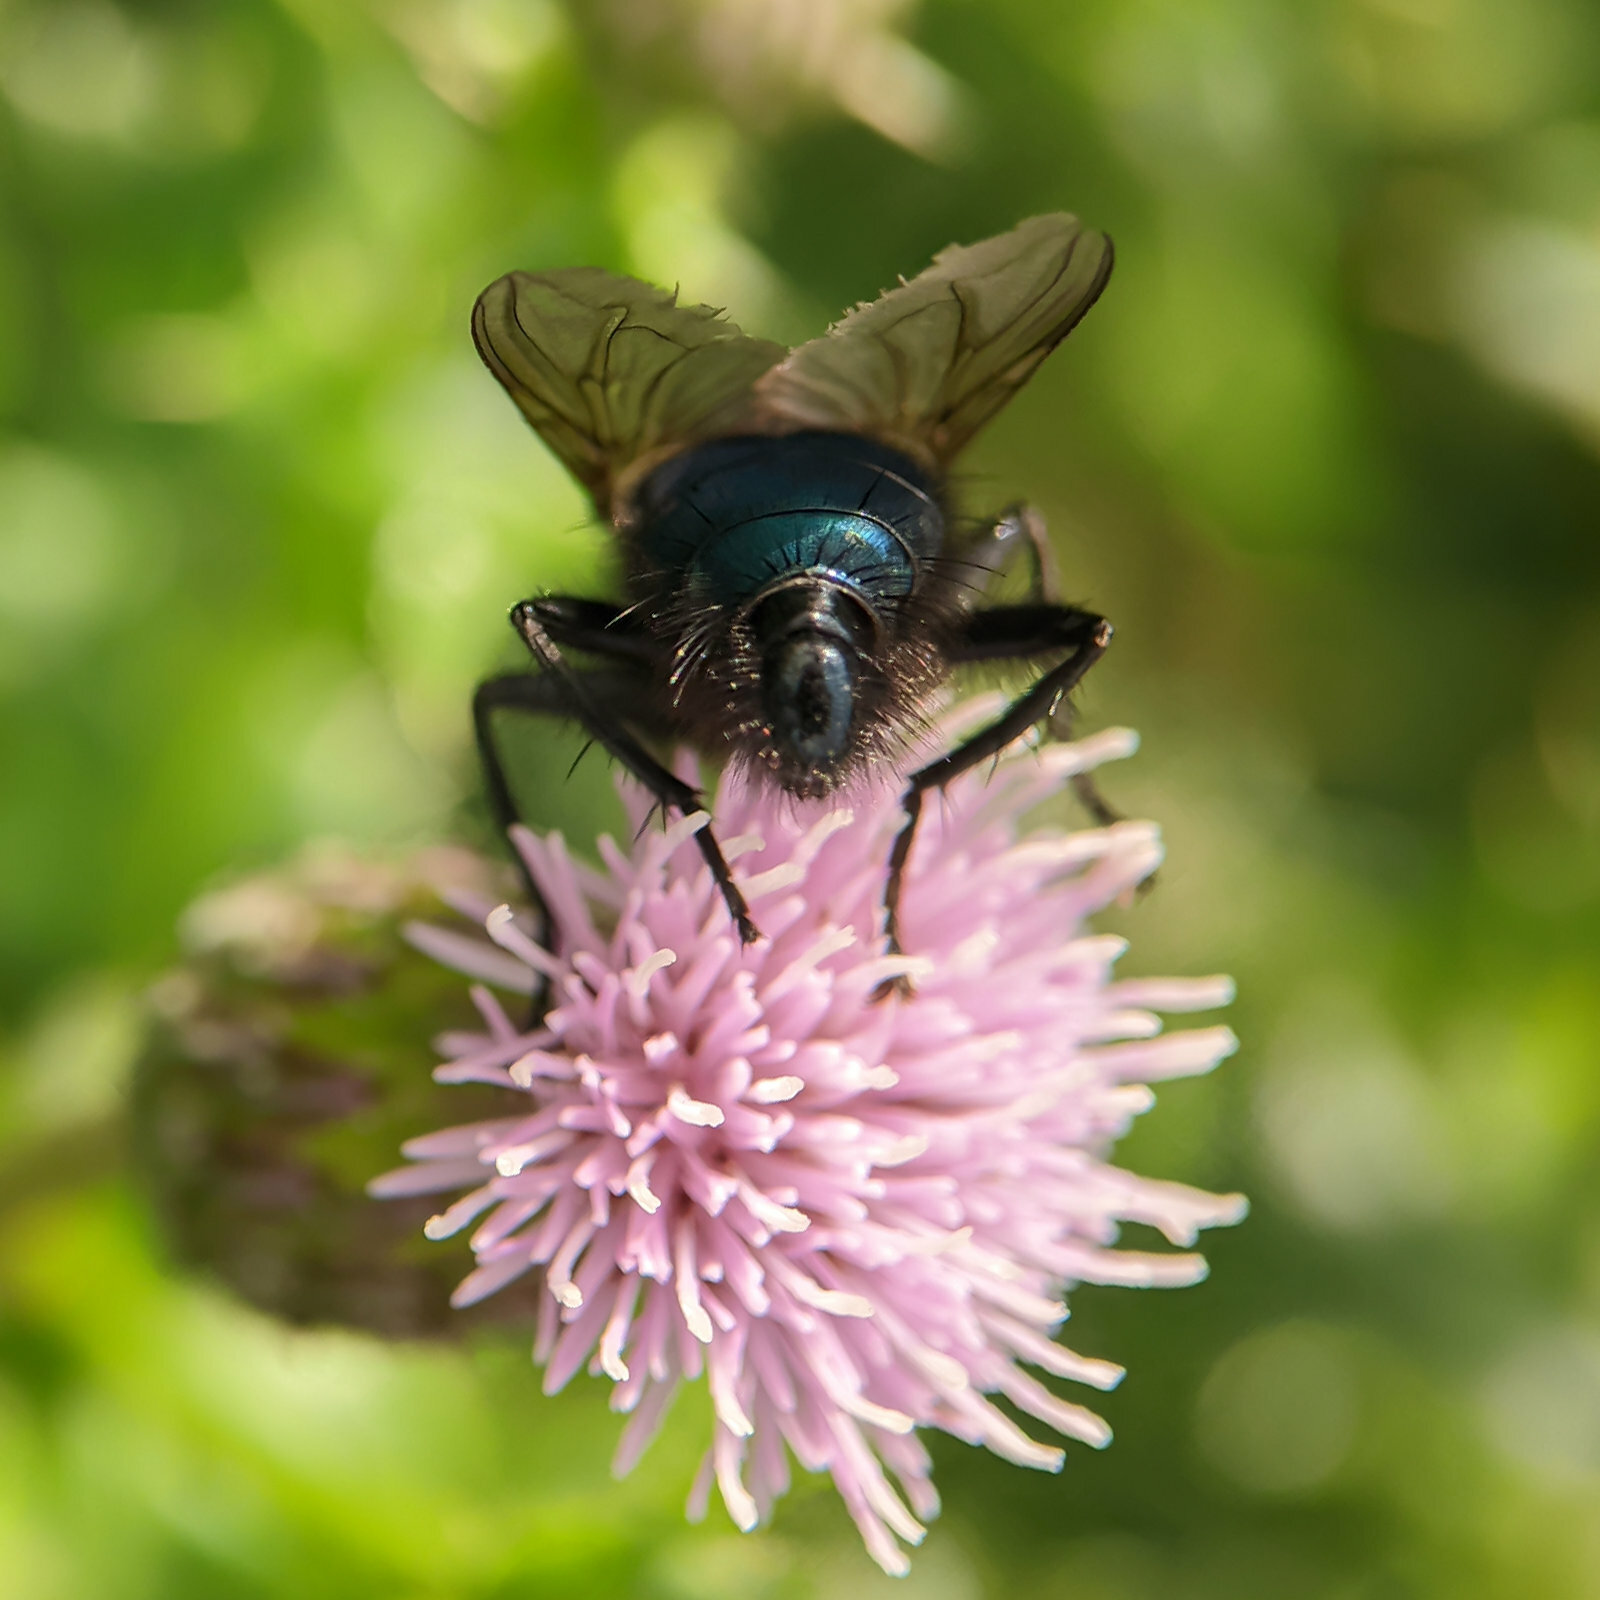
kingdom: Animalia
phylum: Arthropoda
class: Insecta
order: Diptera
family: Calliphoridae
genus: Cynomya
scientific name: Cynomya mortuorum
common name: Bluebottle blow fly
